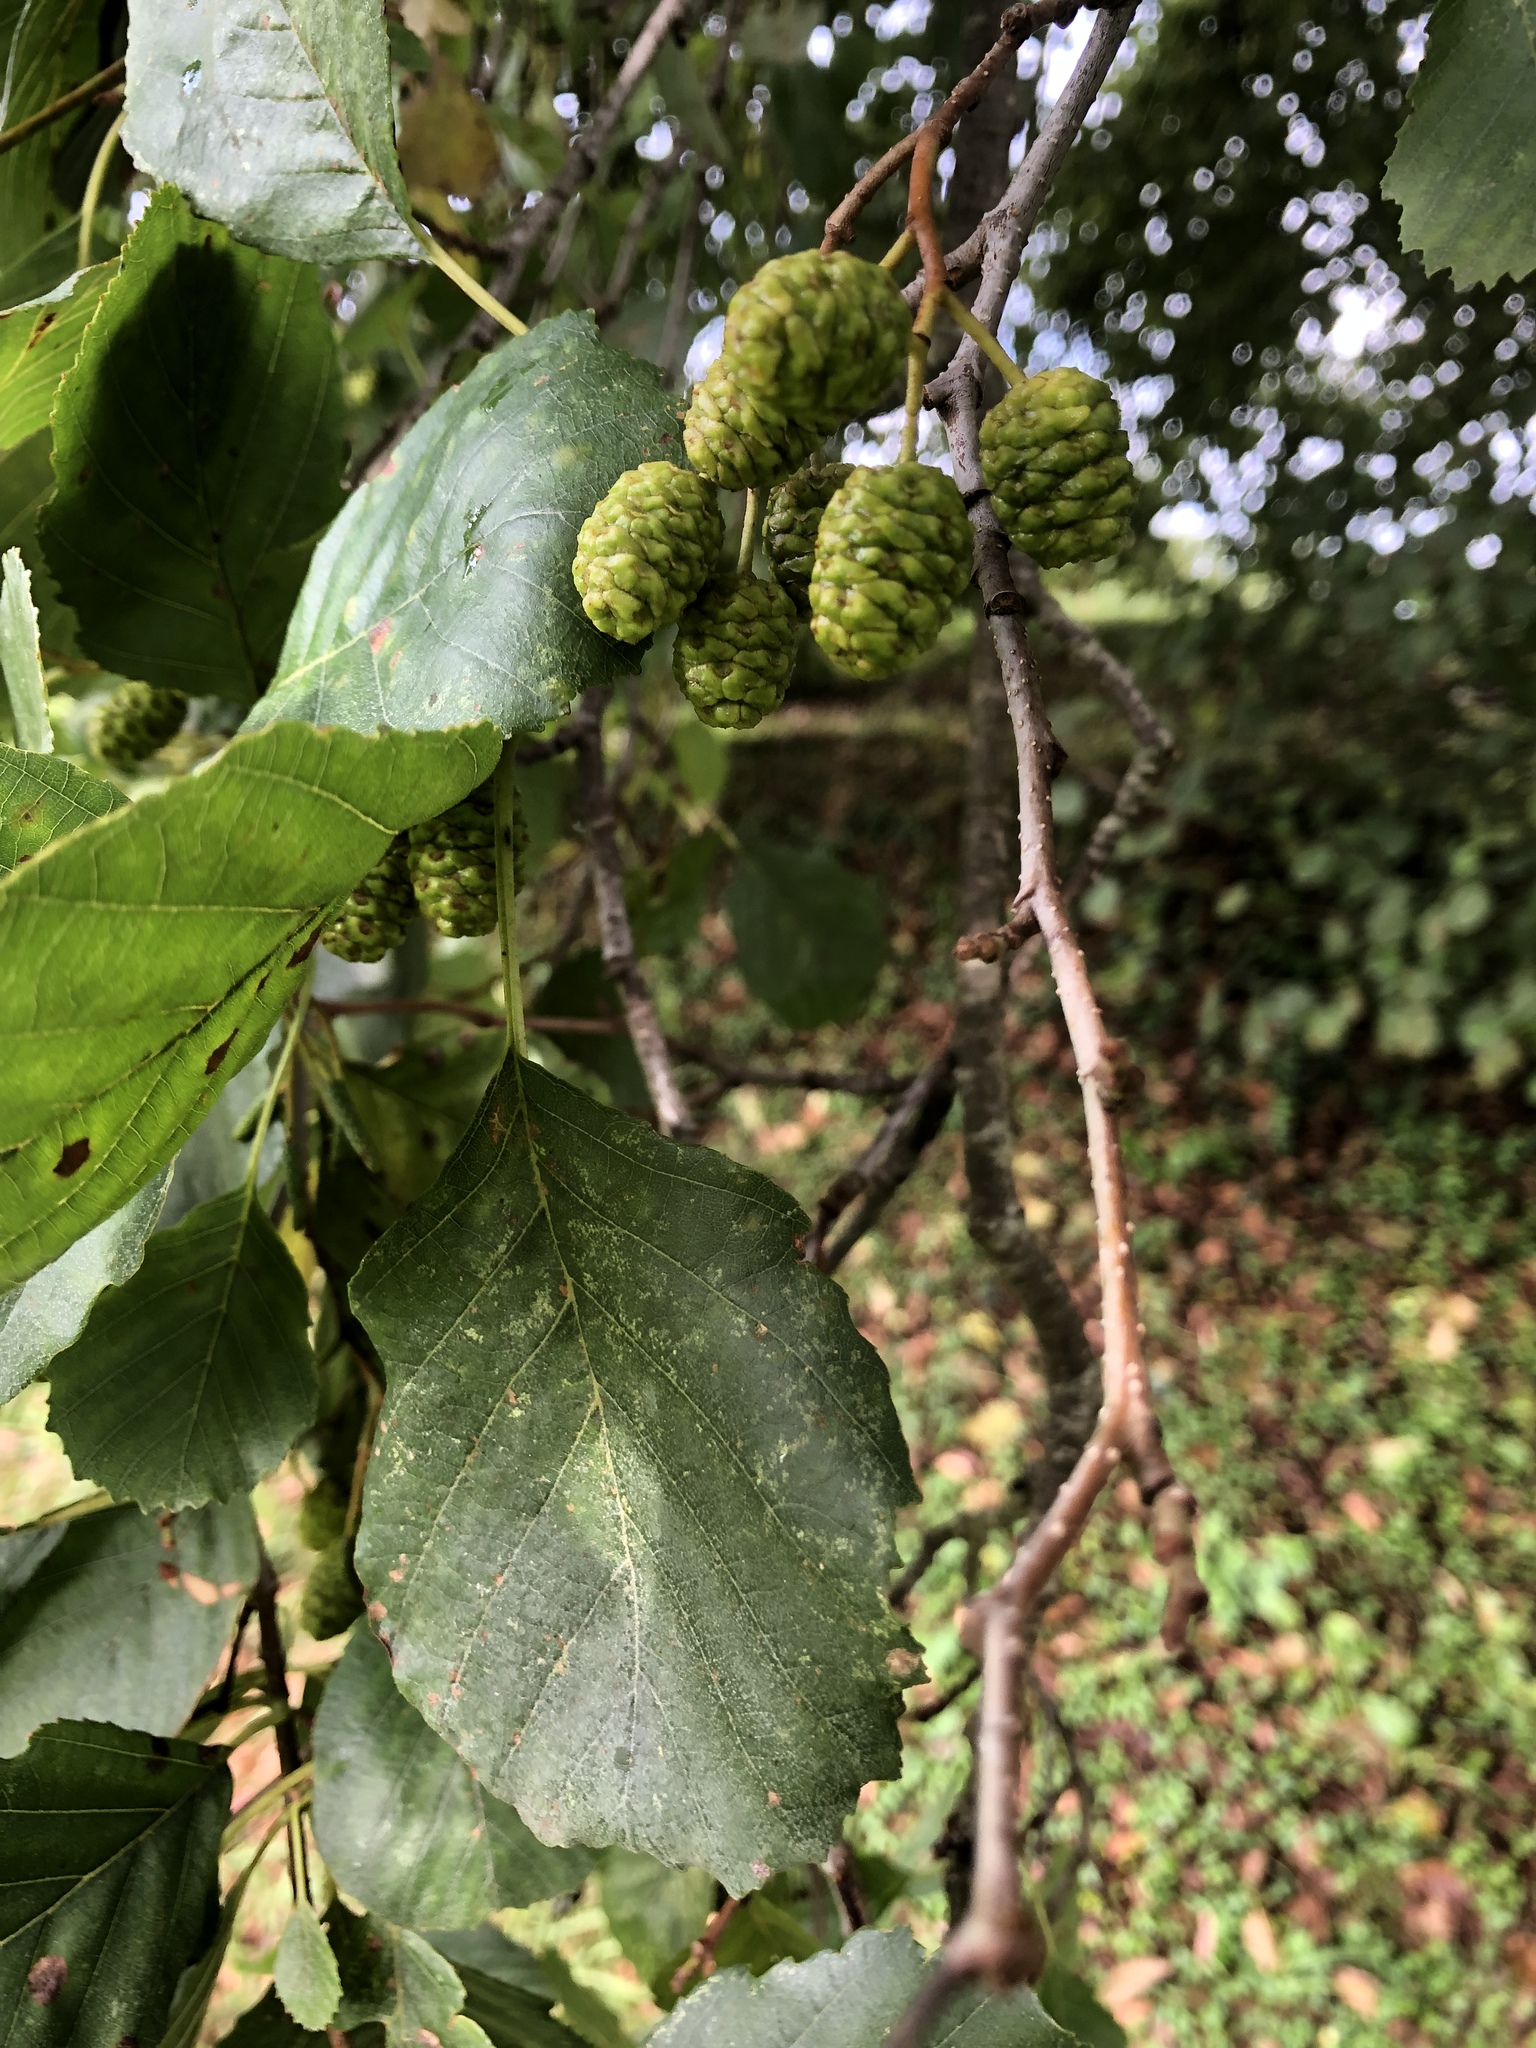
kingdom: Plantae
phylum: Tracheophyta
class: Magnoliopsida
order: Fagales
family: Betulaceae
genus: Alnus
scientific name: Alnus glutinosa
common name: Black alder
